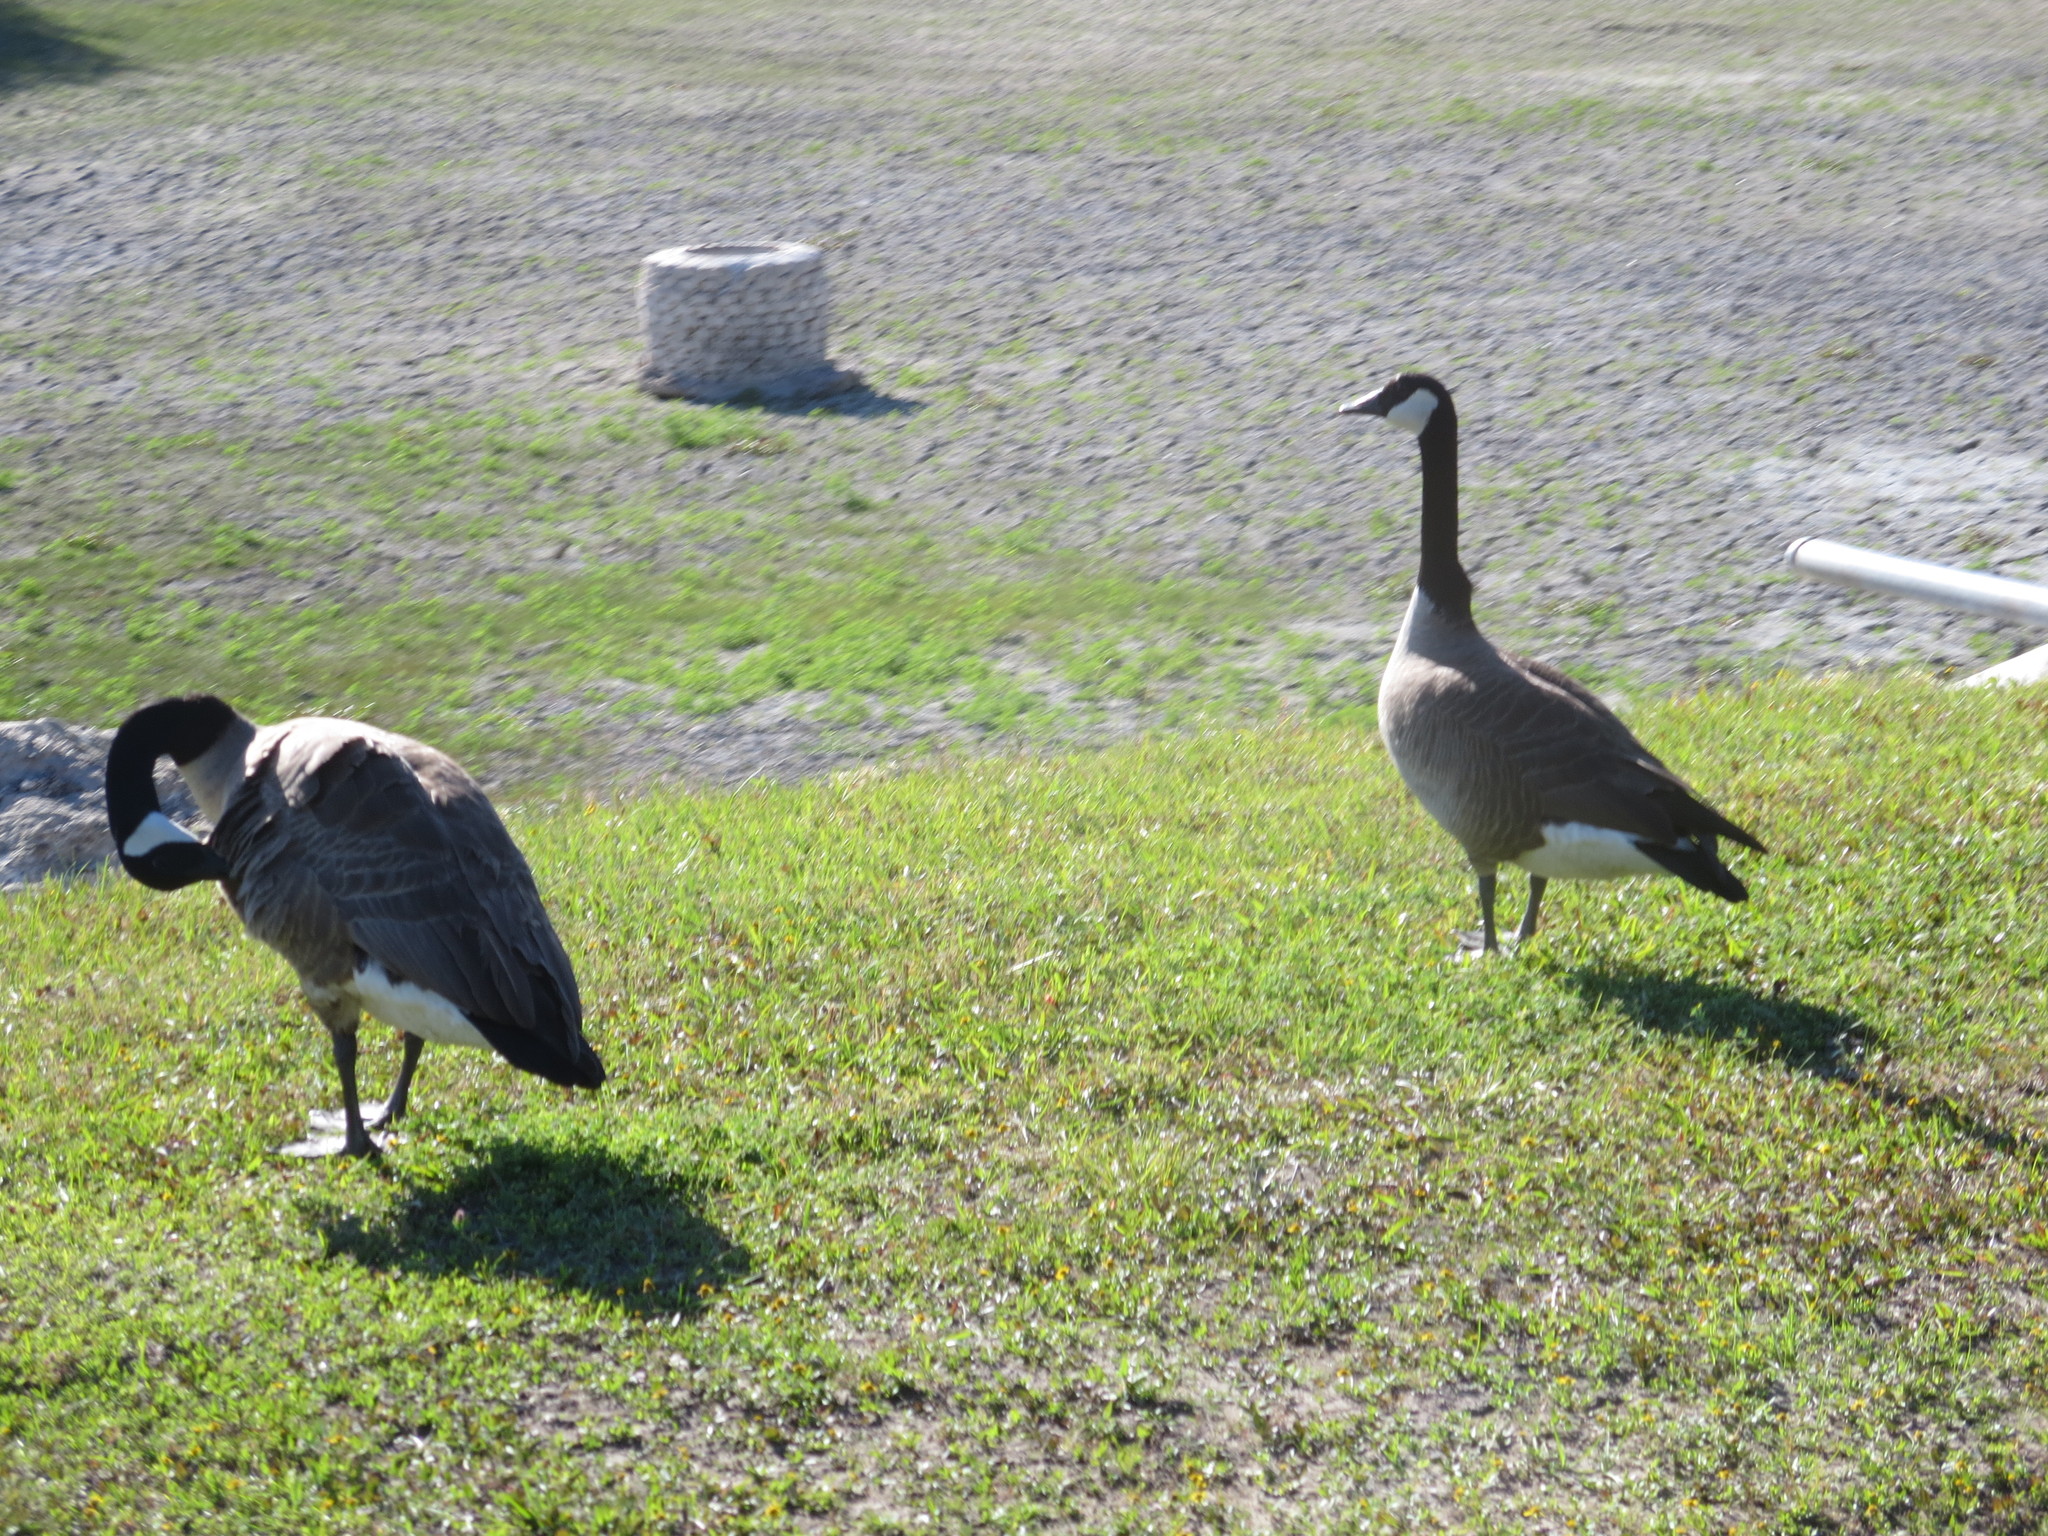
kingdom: Animalia
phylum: Chordata
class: Aves
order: Anseriformes
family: Anatidae
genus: Branta
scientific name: Branta canadensis
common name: Canada goose
